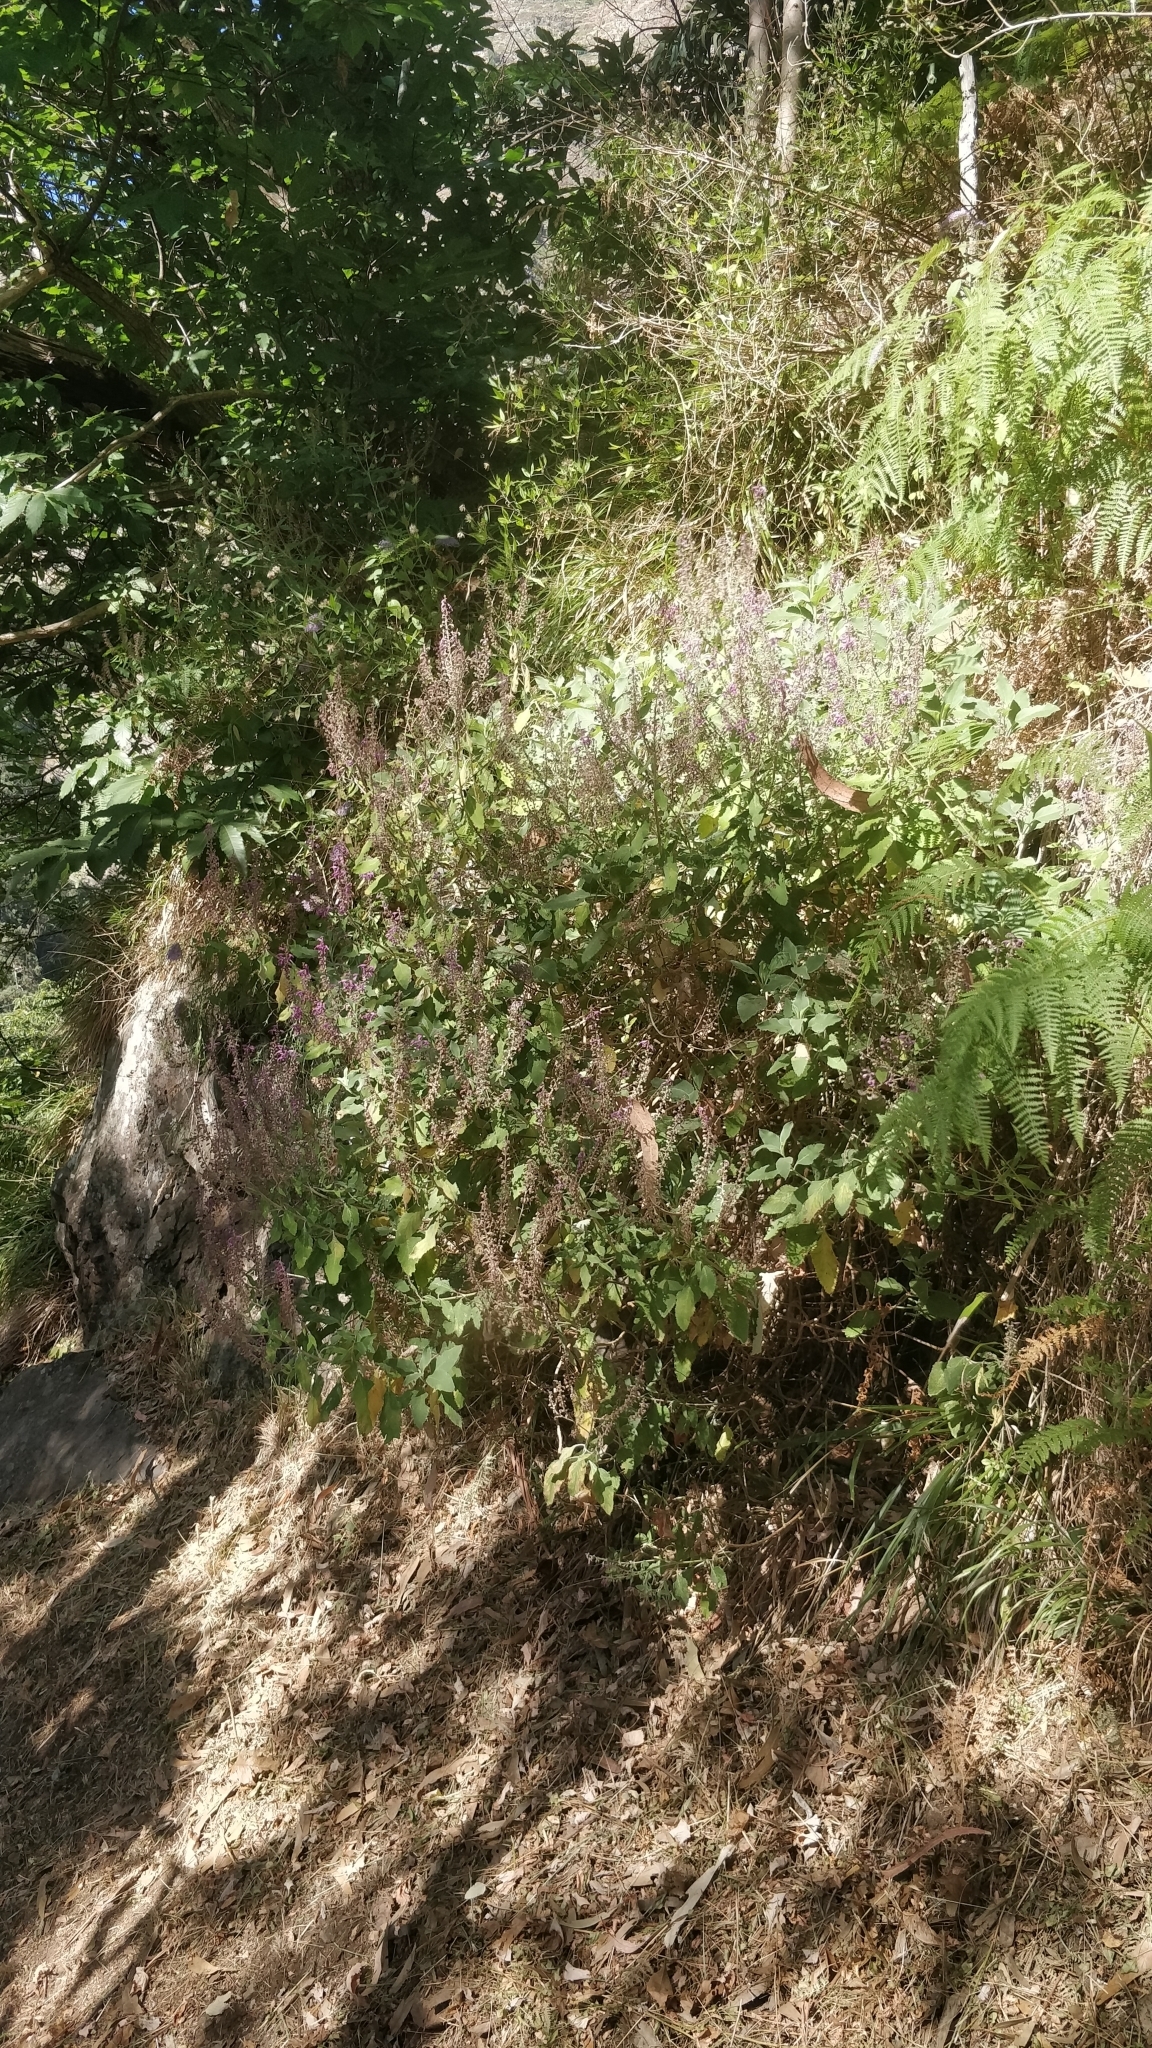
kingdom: Plantae
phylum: Tracheophyta
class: Magnoliopsida
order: Lamiales
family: Lamiaceae
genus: Teucrium
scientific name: Teucrium betonicum
